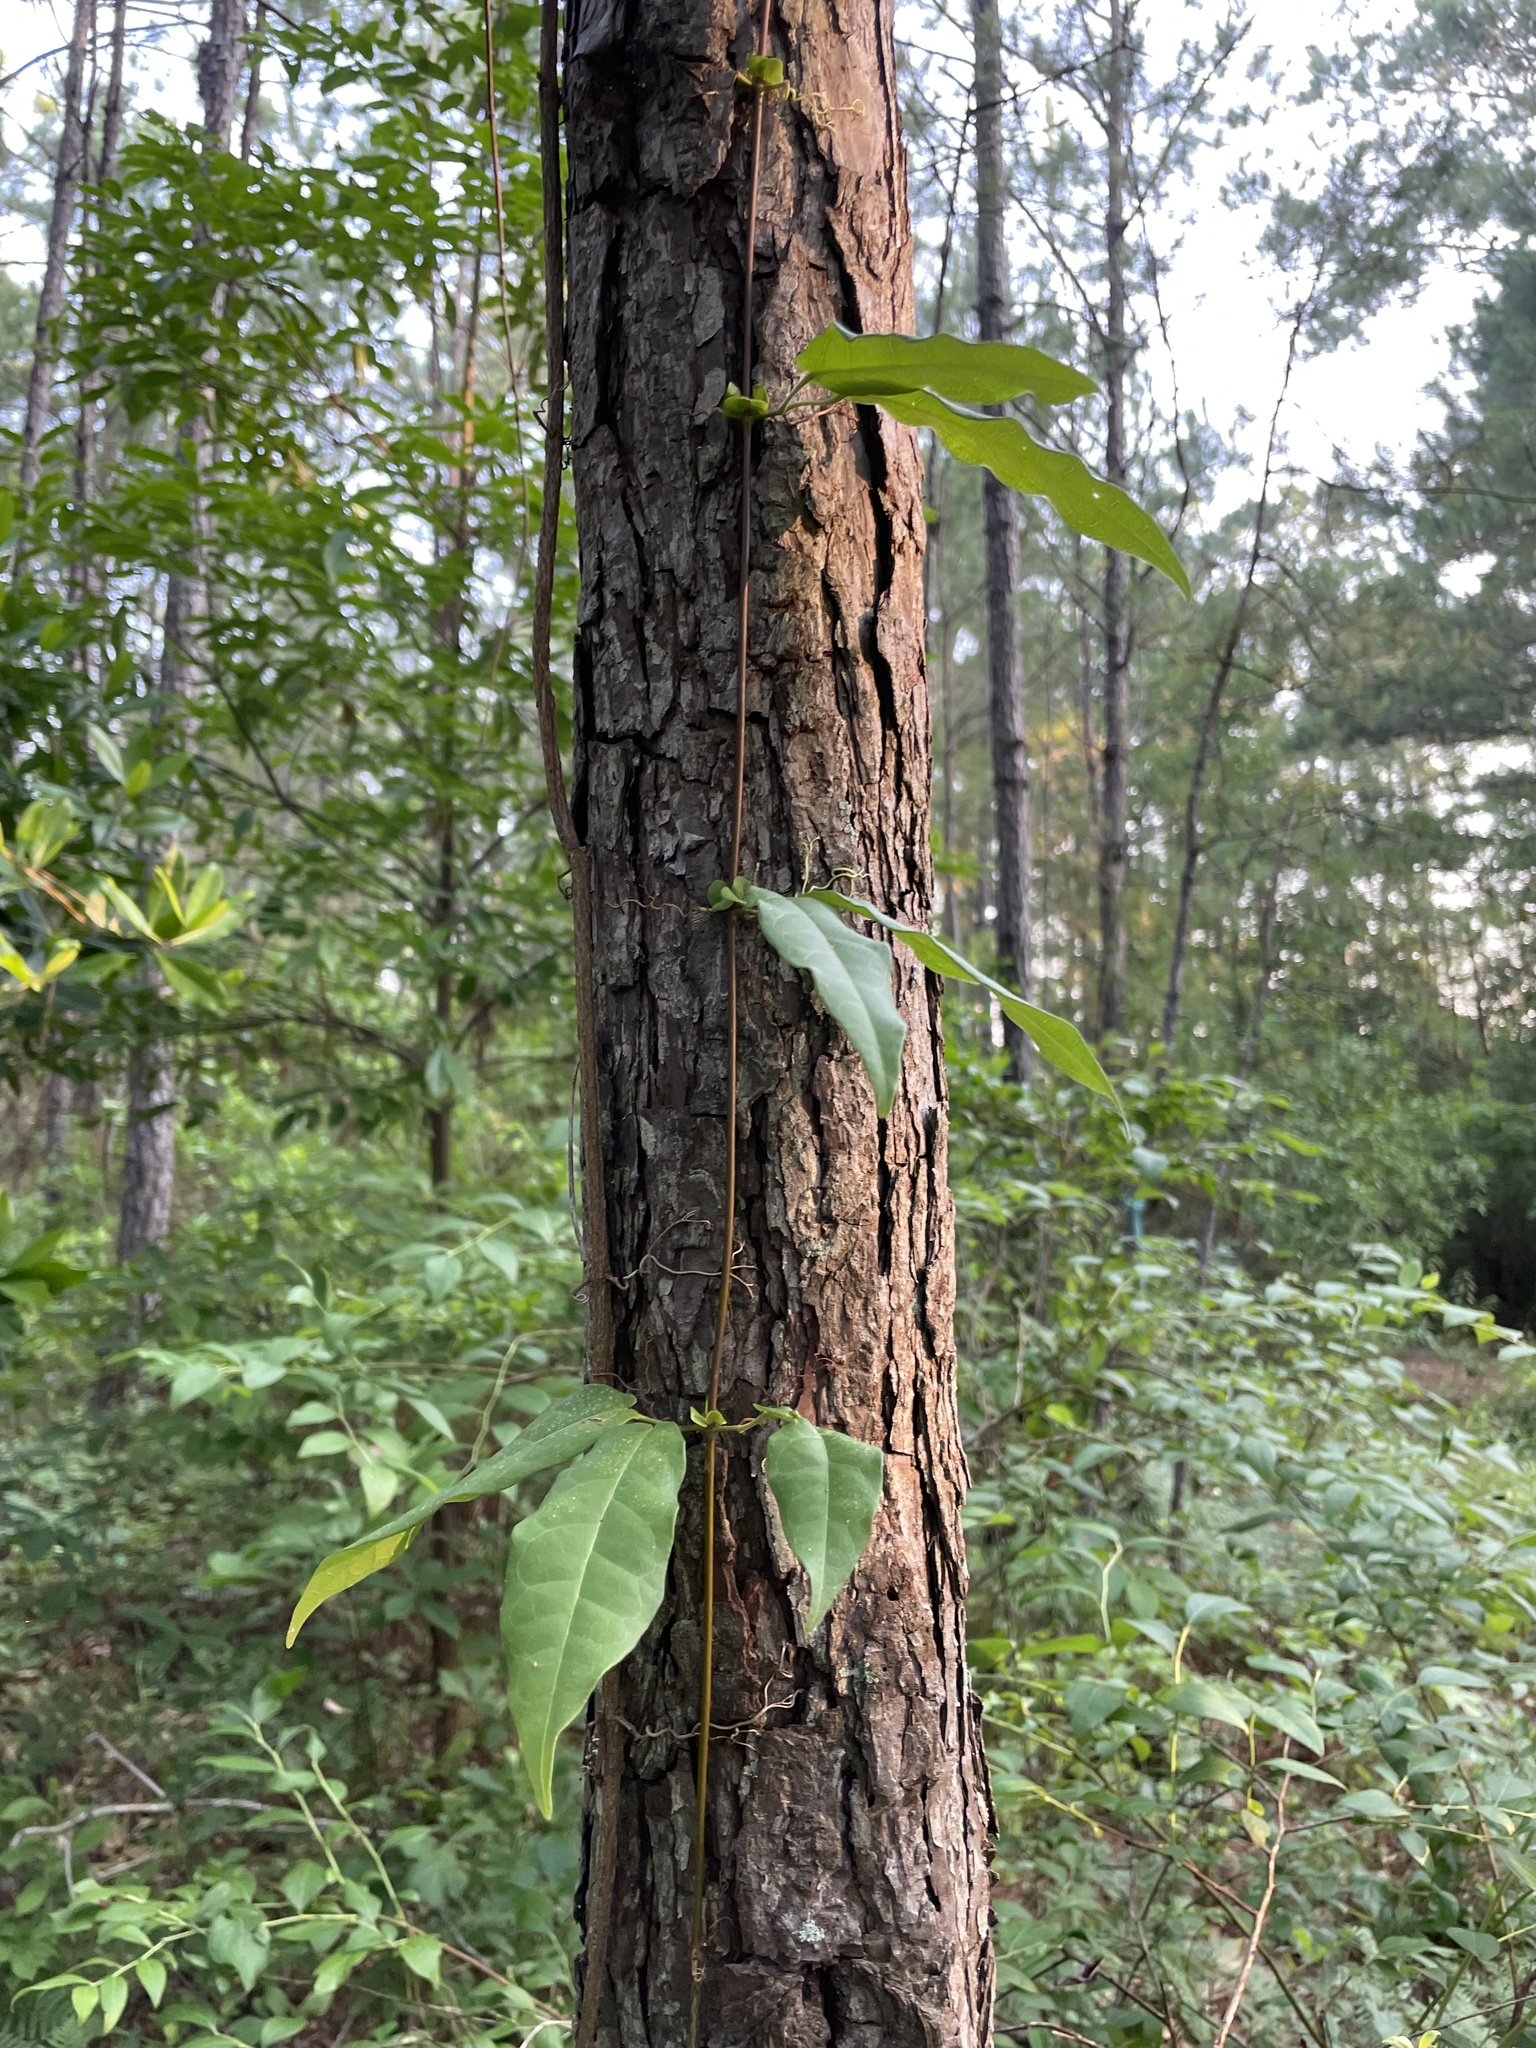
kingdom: Plantae
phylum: Tracheophyta
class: Magnoliopsida
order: Lamiales
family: Bignoniaceae
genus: Bignonia
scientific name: Bignonia capreolata
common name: Crossvine
